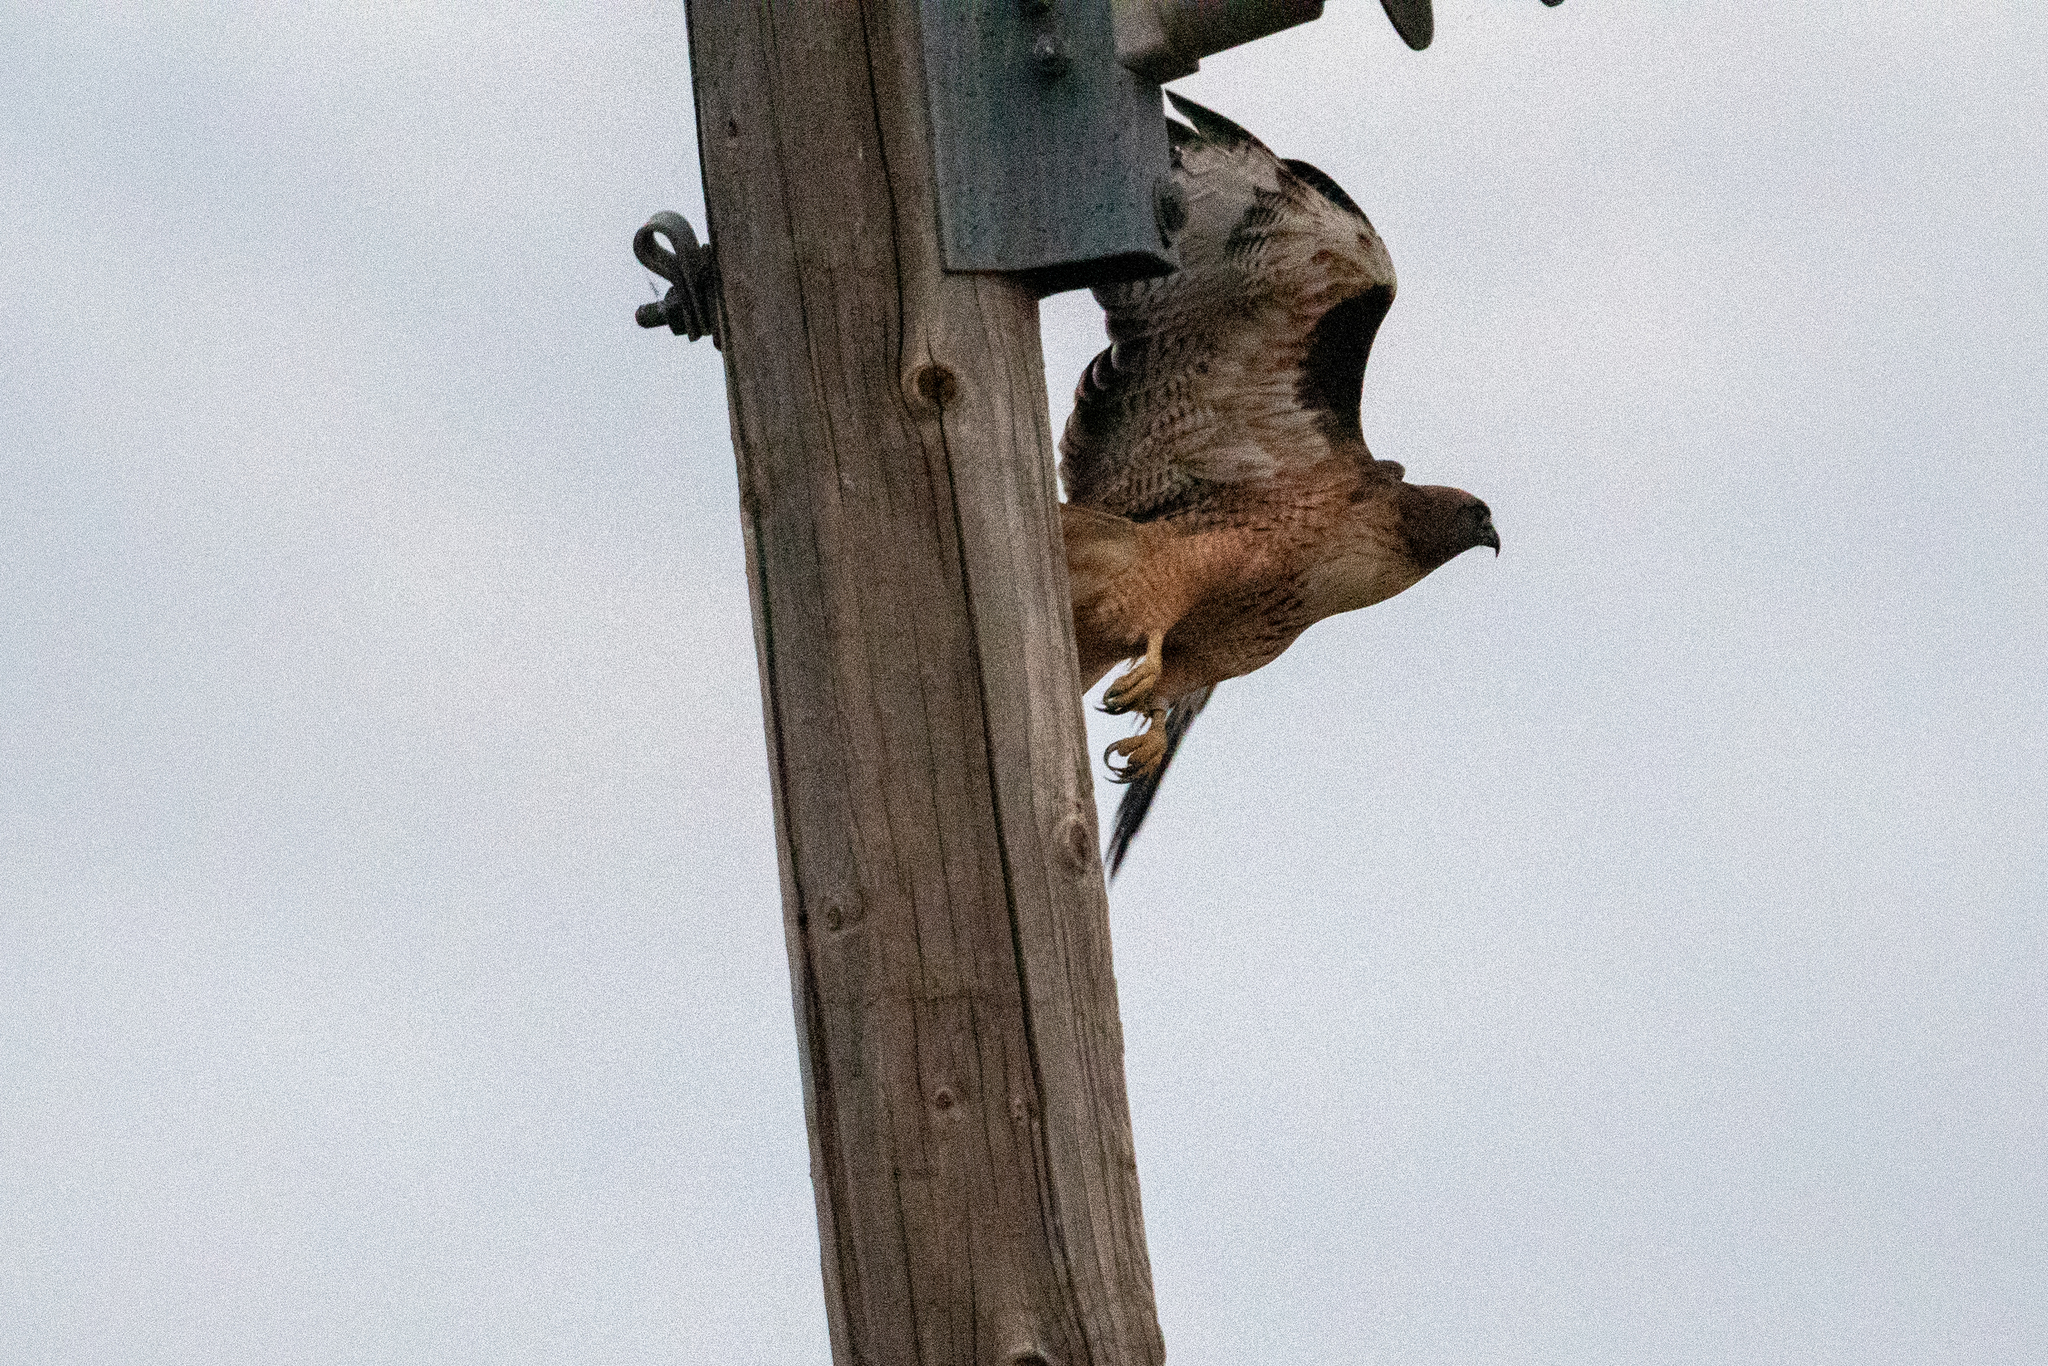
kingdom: Animalia
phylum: Chordata
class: Aves
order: Accipitriformes
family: Accipitridae
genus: Buteo
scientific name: Buteo jamaicensis
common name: Red-tailed hawk
